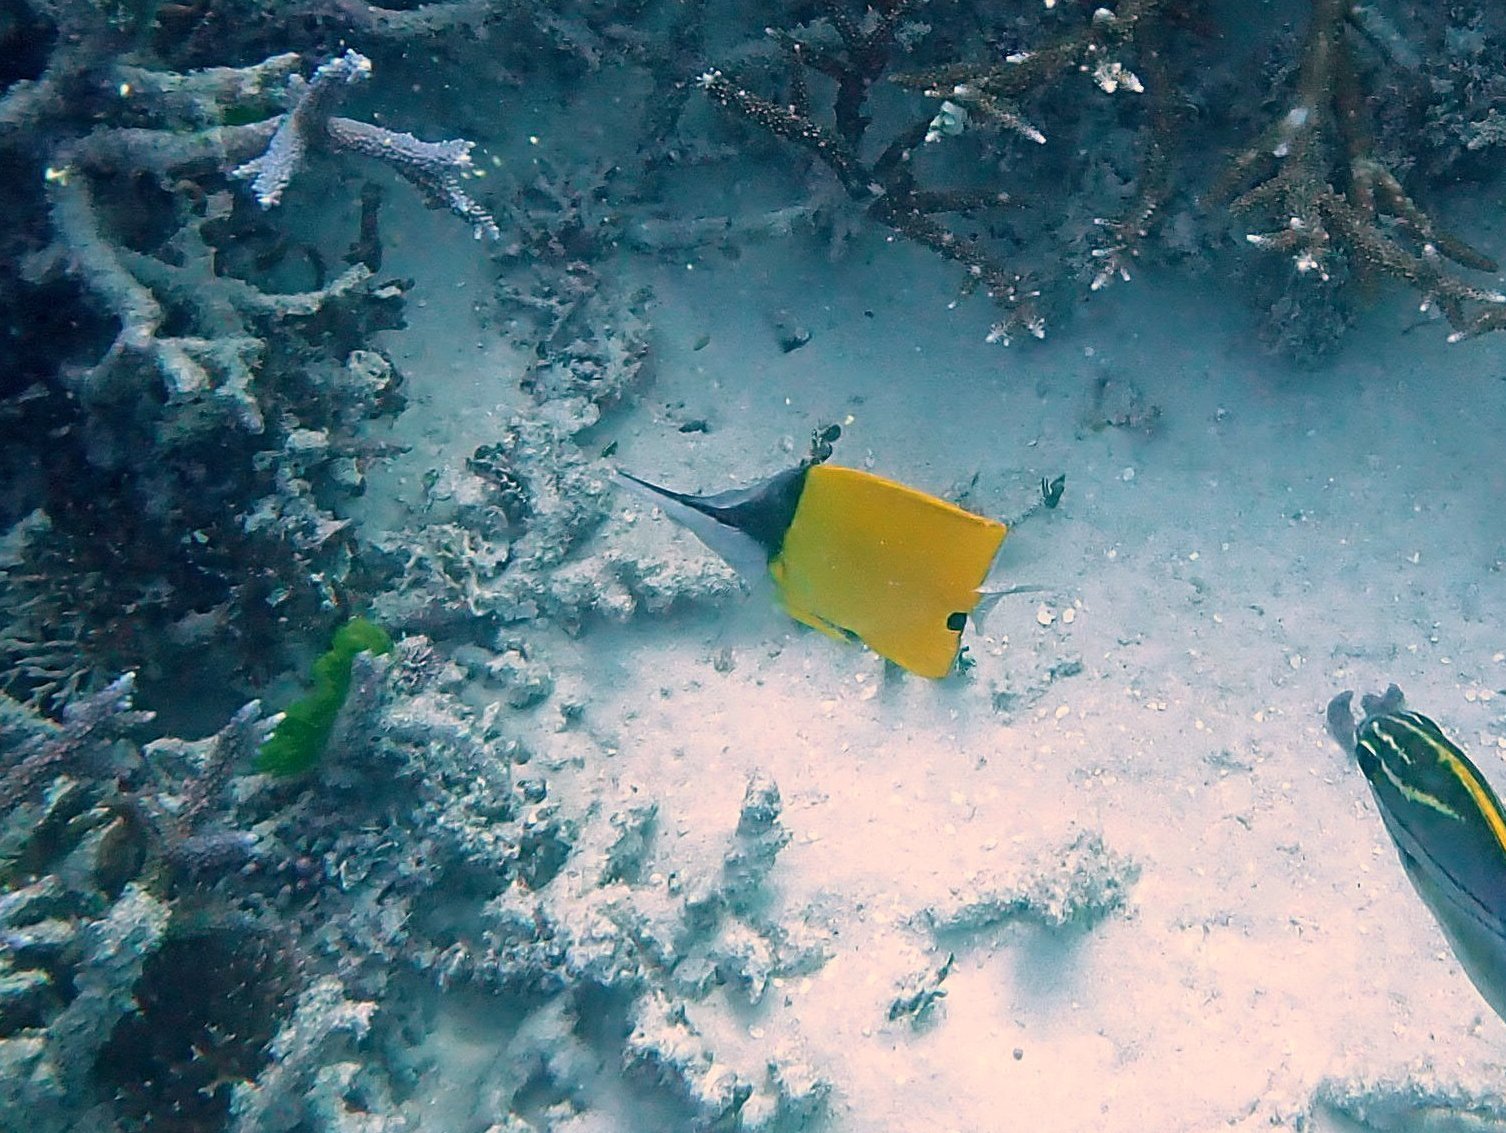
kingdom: Animalia
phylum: Chordata
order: Perciformes
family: Chaetodontidae
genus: Forcipiger
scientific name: Forcipiger flavissimus
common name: Forcepsfish
